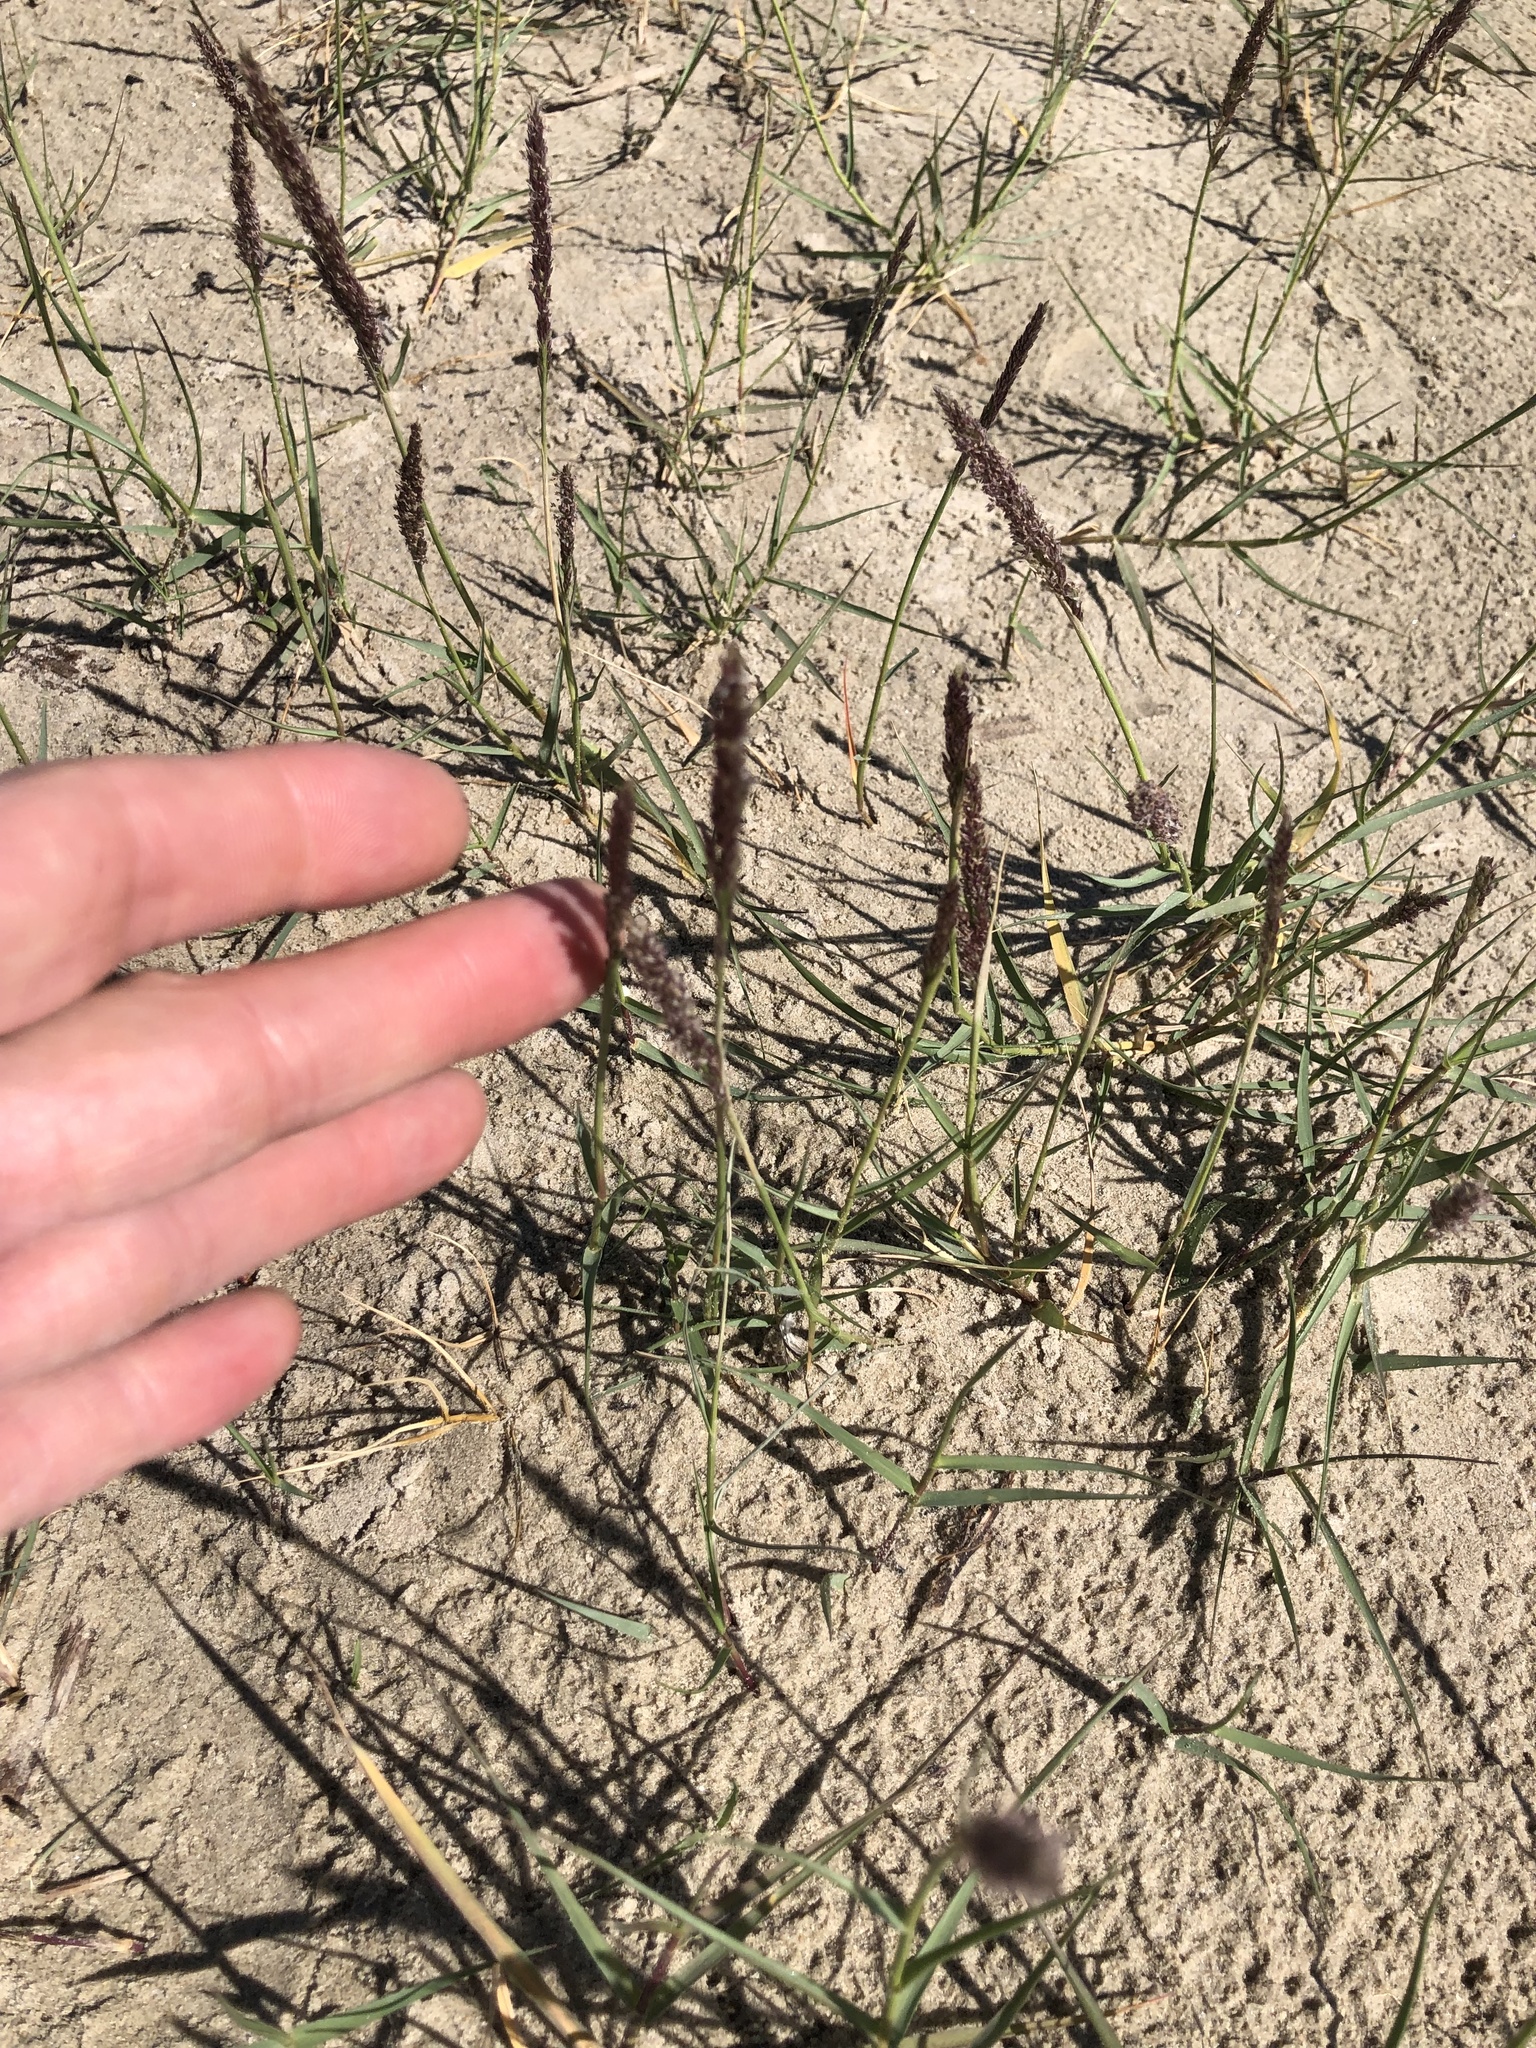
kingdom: Plantae
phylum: Tracheophyta
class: Liliopsida
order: Poales
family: Poaceae
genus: Sporobolus
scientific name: Sporobolus virginicus
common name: Beach dropseed
